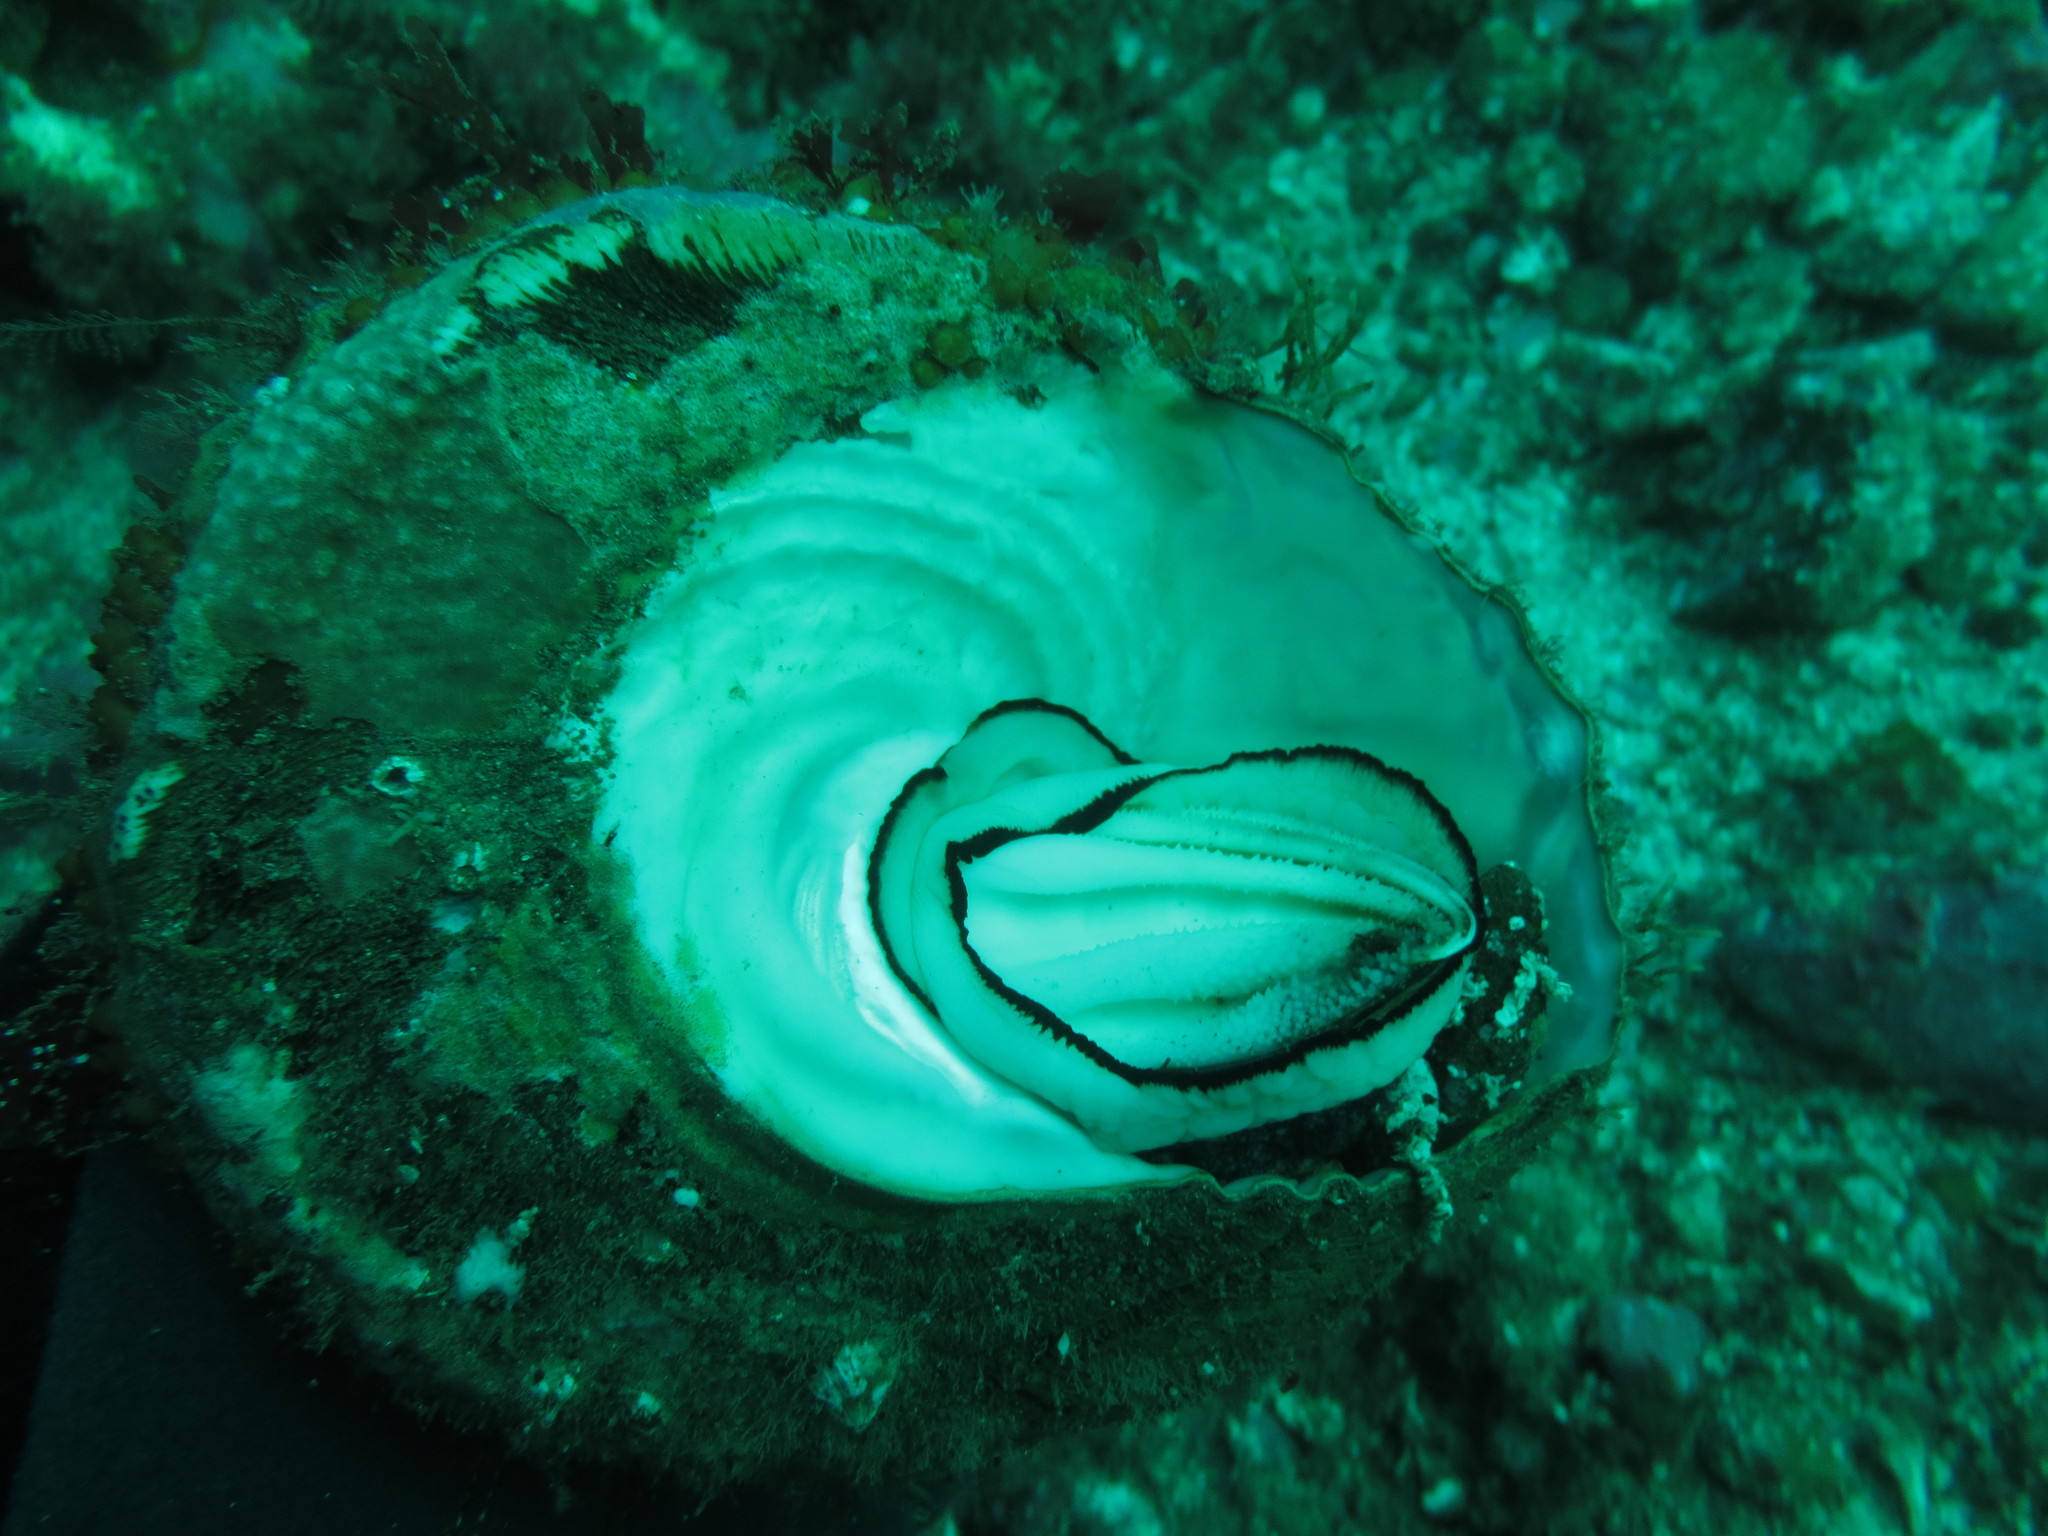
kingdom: Animalia
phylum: Mollusca
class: Gastropoda
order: Trochida
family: Turbinidae
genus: Megastraea
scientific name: Megastraea undosa
